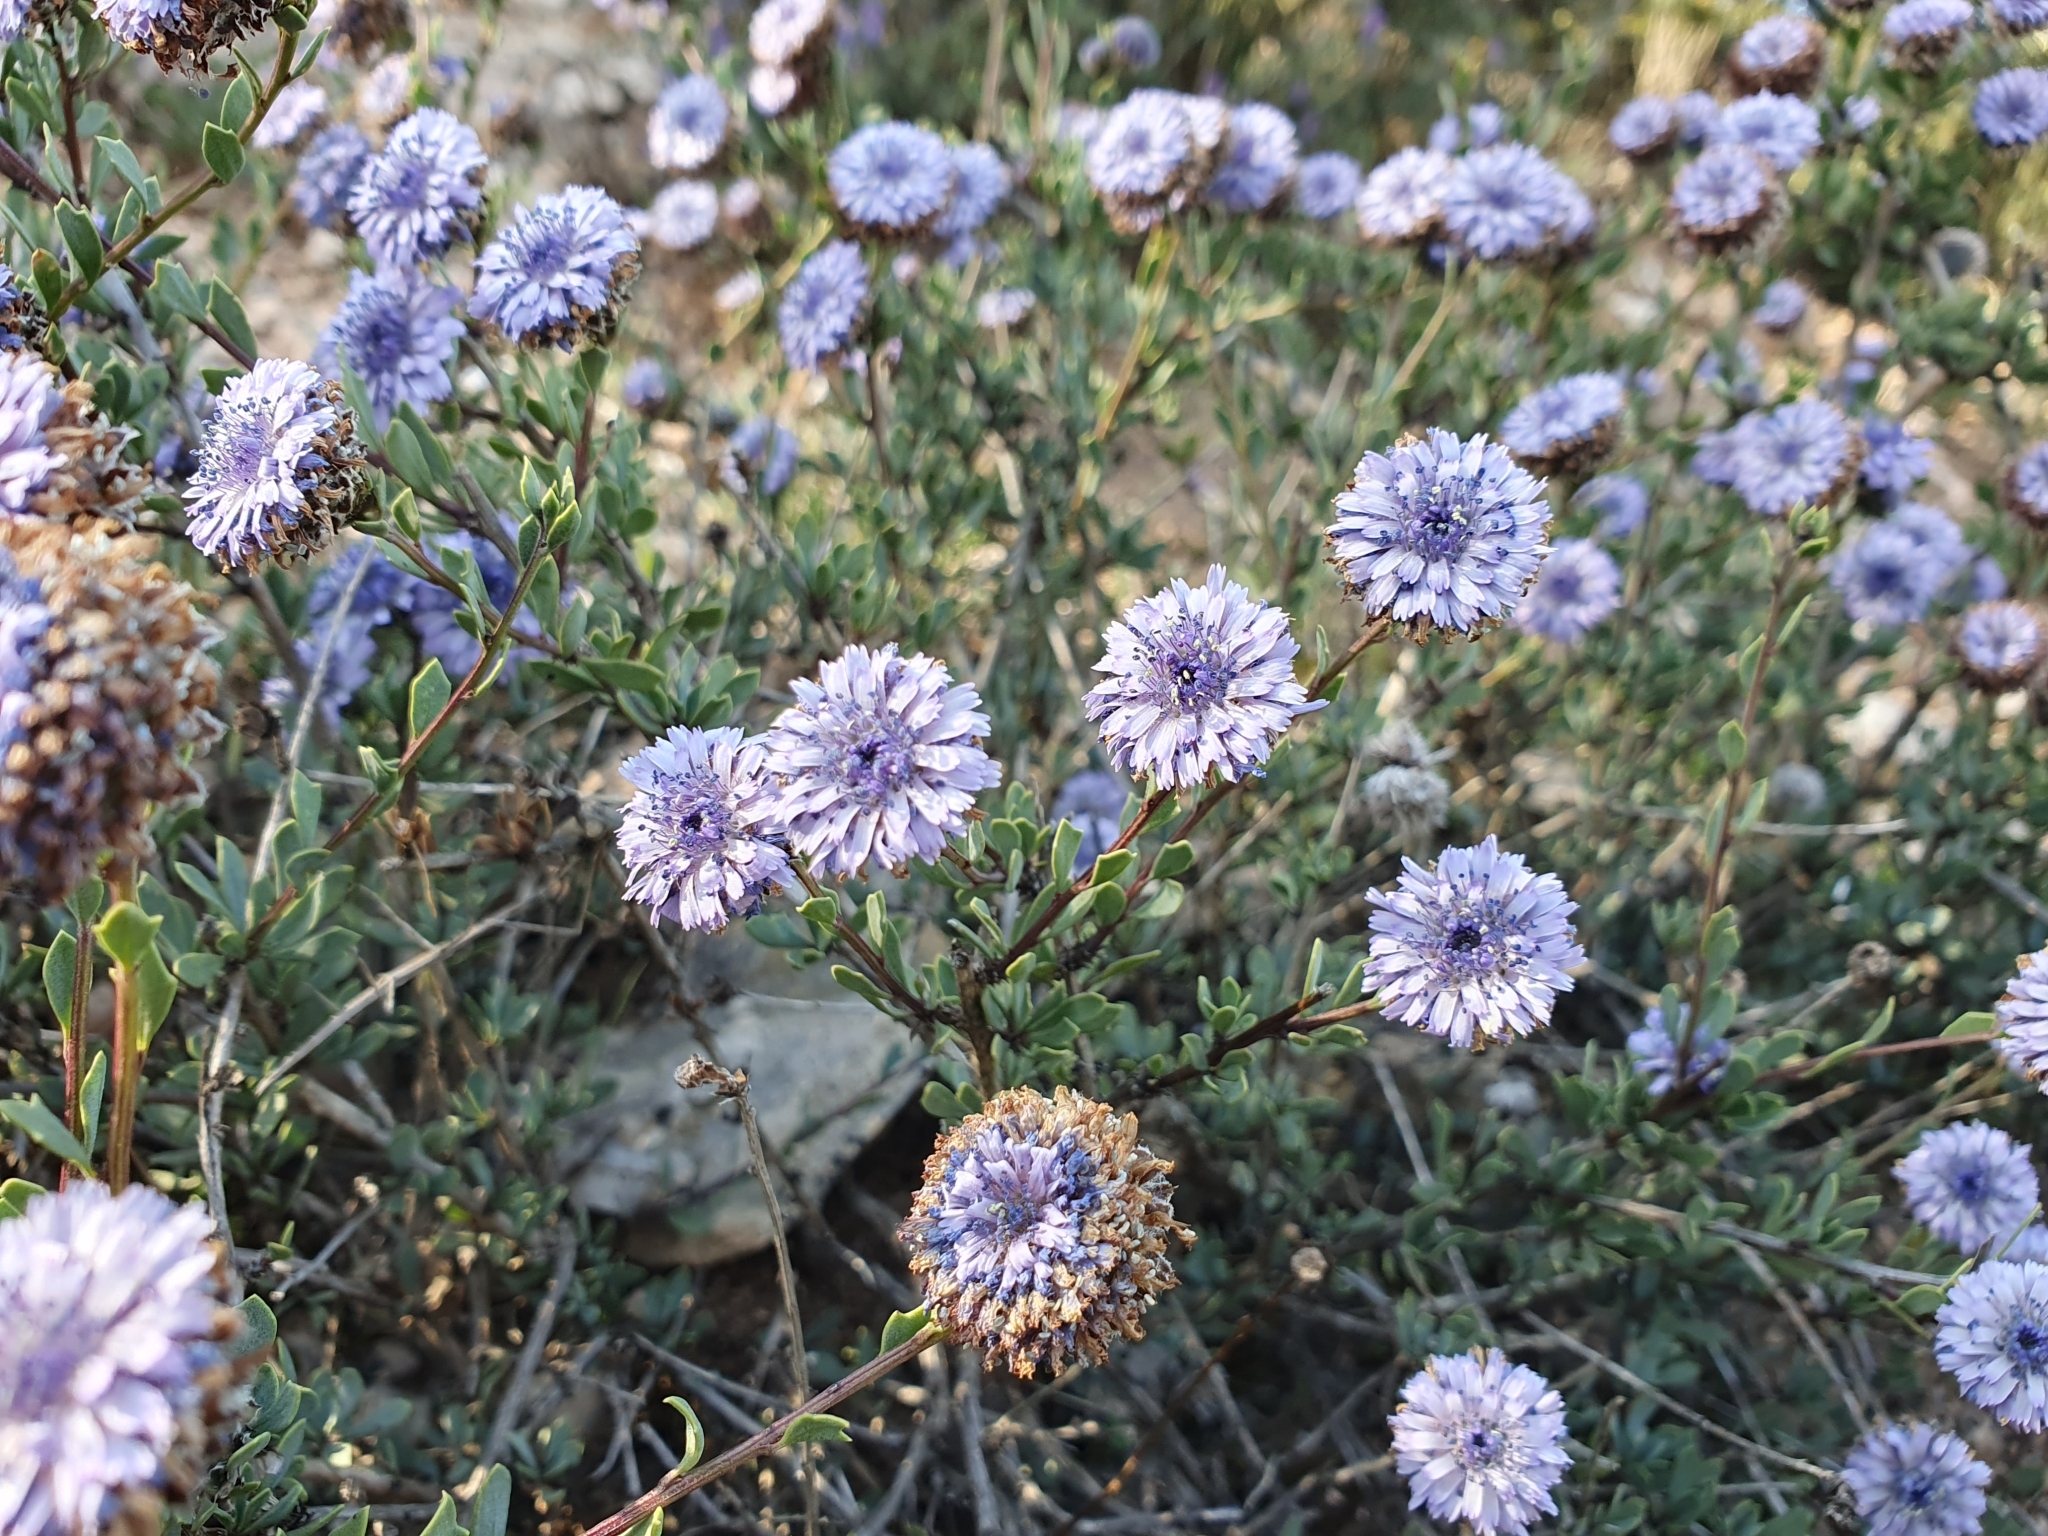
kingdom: Plantae
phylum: Tracheophyta
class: Magnoliopsida
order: Lamiales
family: Plantaginaceae
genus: Globularia
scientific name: Globularia alypum
